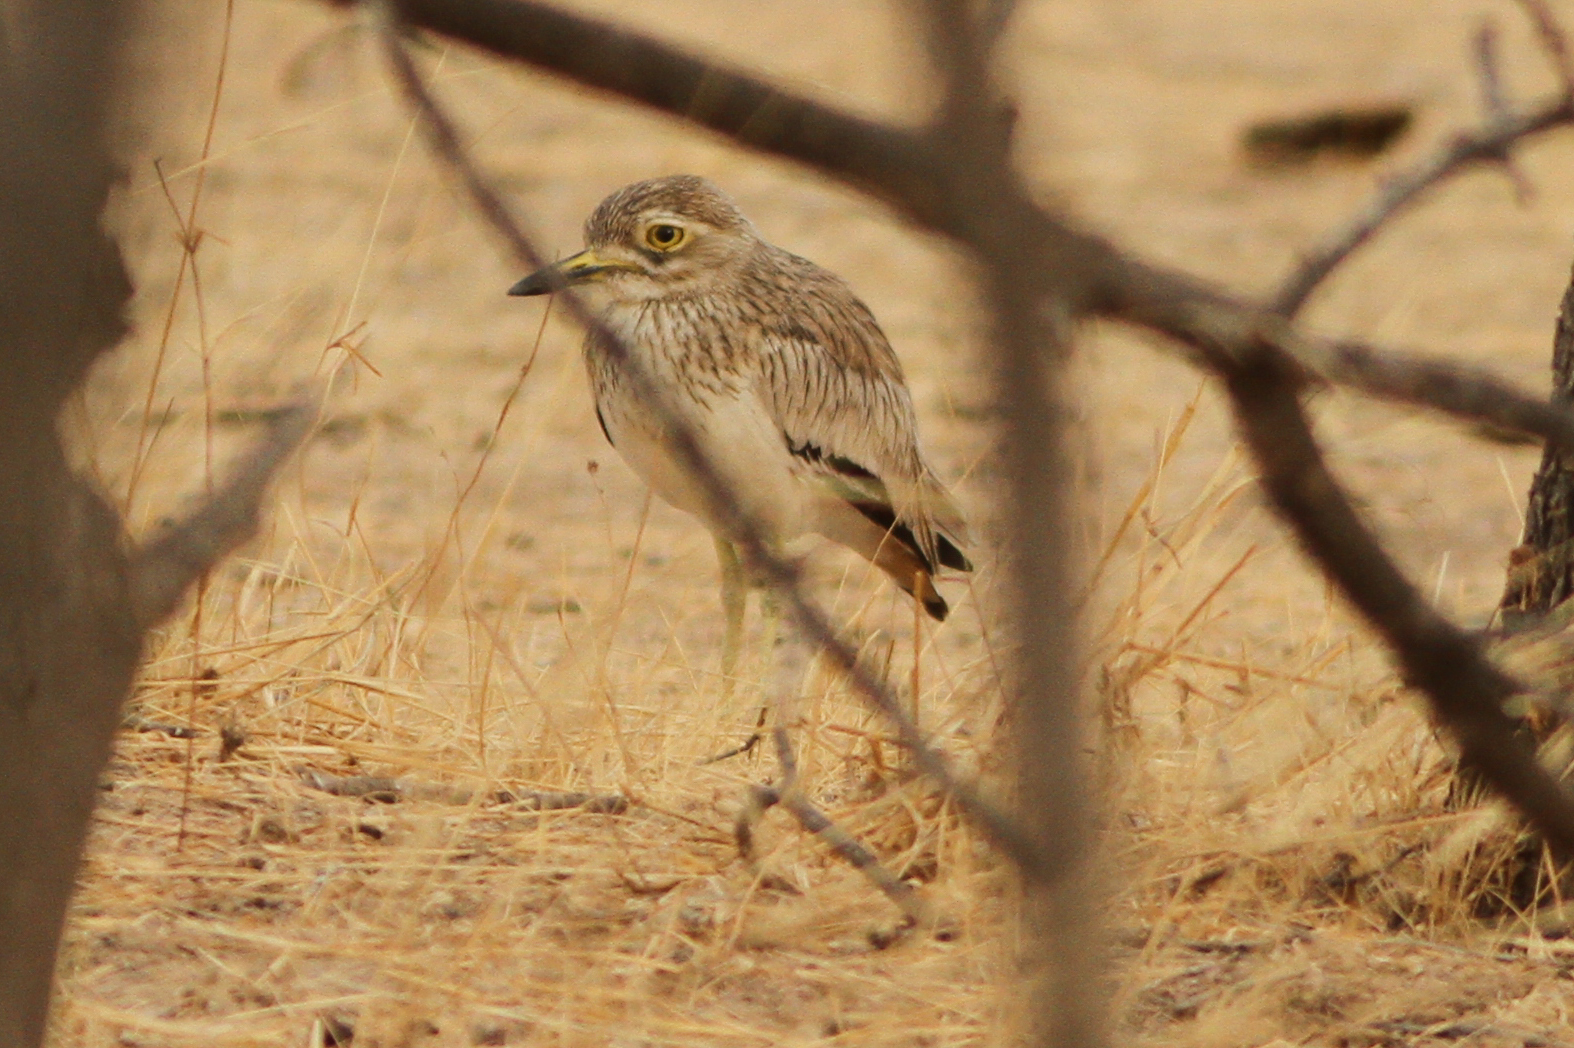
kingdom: Animalia
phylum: Chordata
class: Aves
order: Charadriiformes
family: Burhinidae
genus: Burhinus
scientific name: Burhinus senegalensis
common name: Senegal thick-knee
